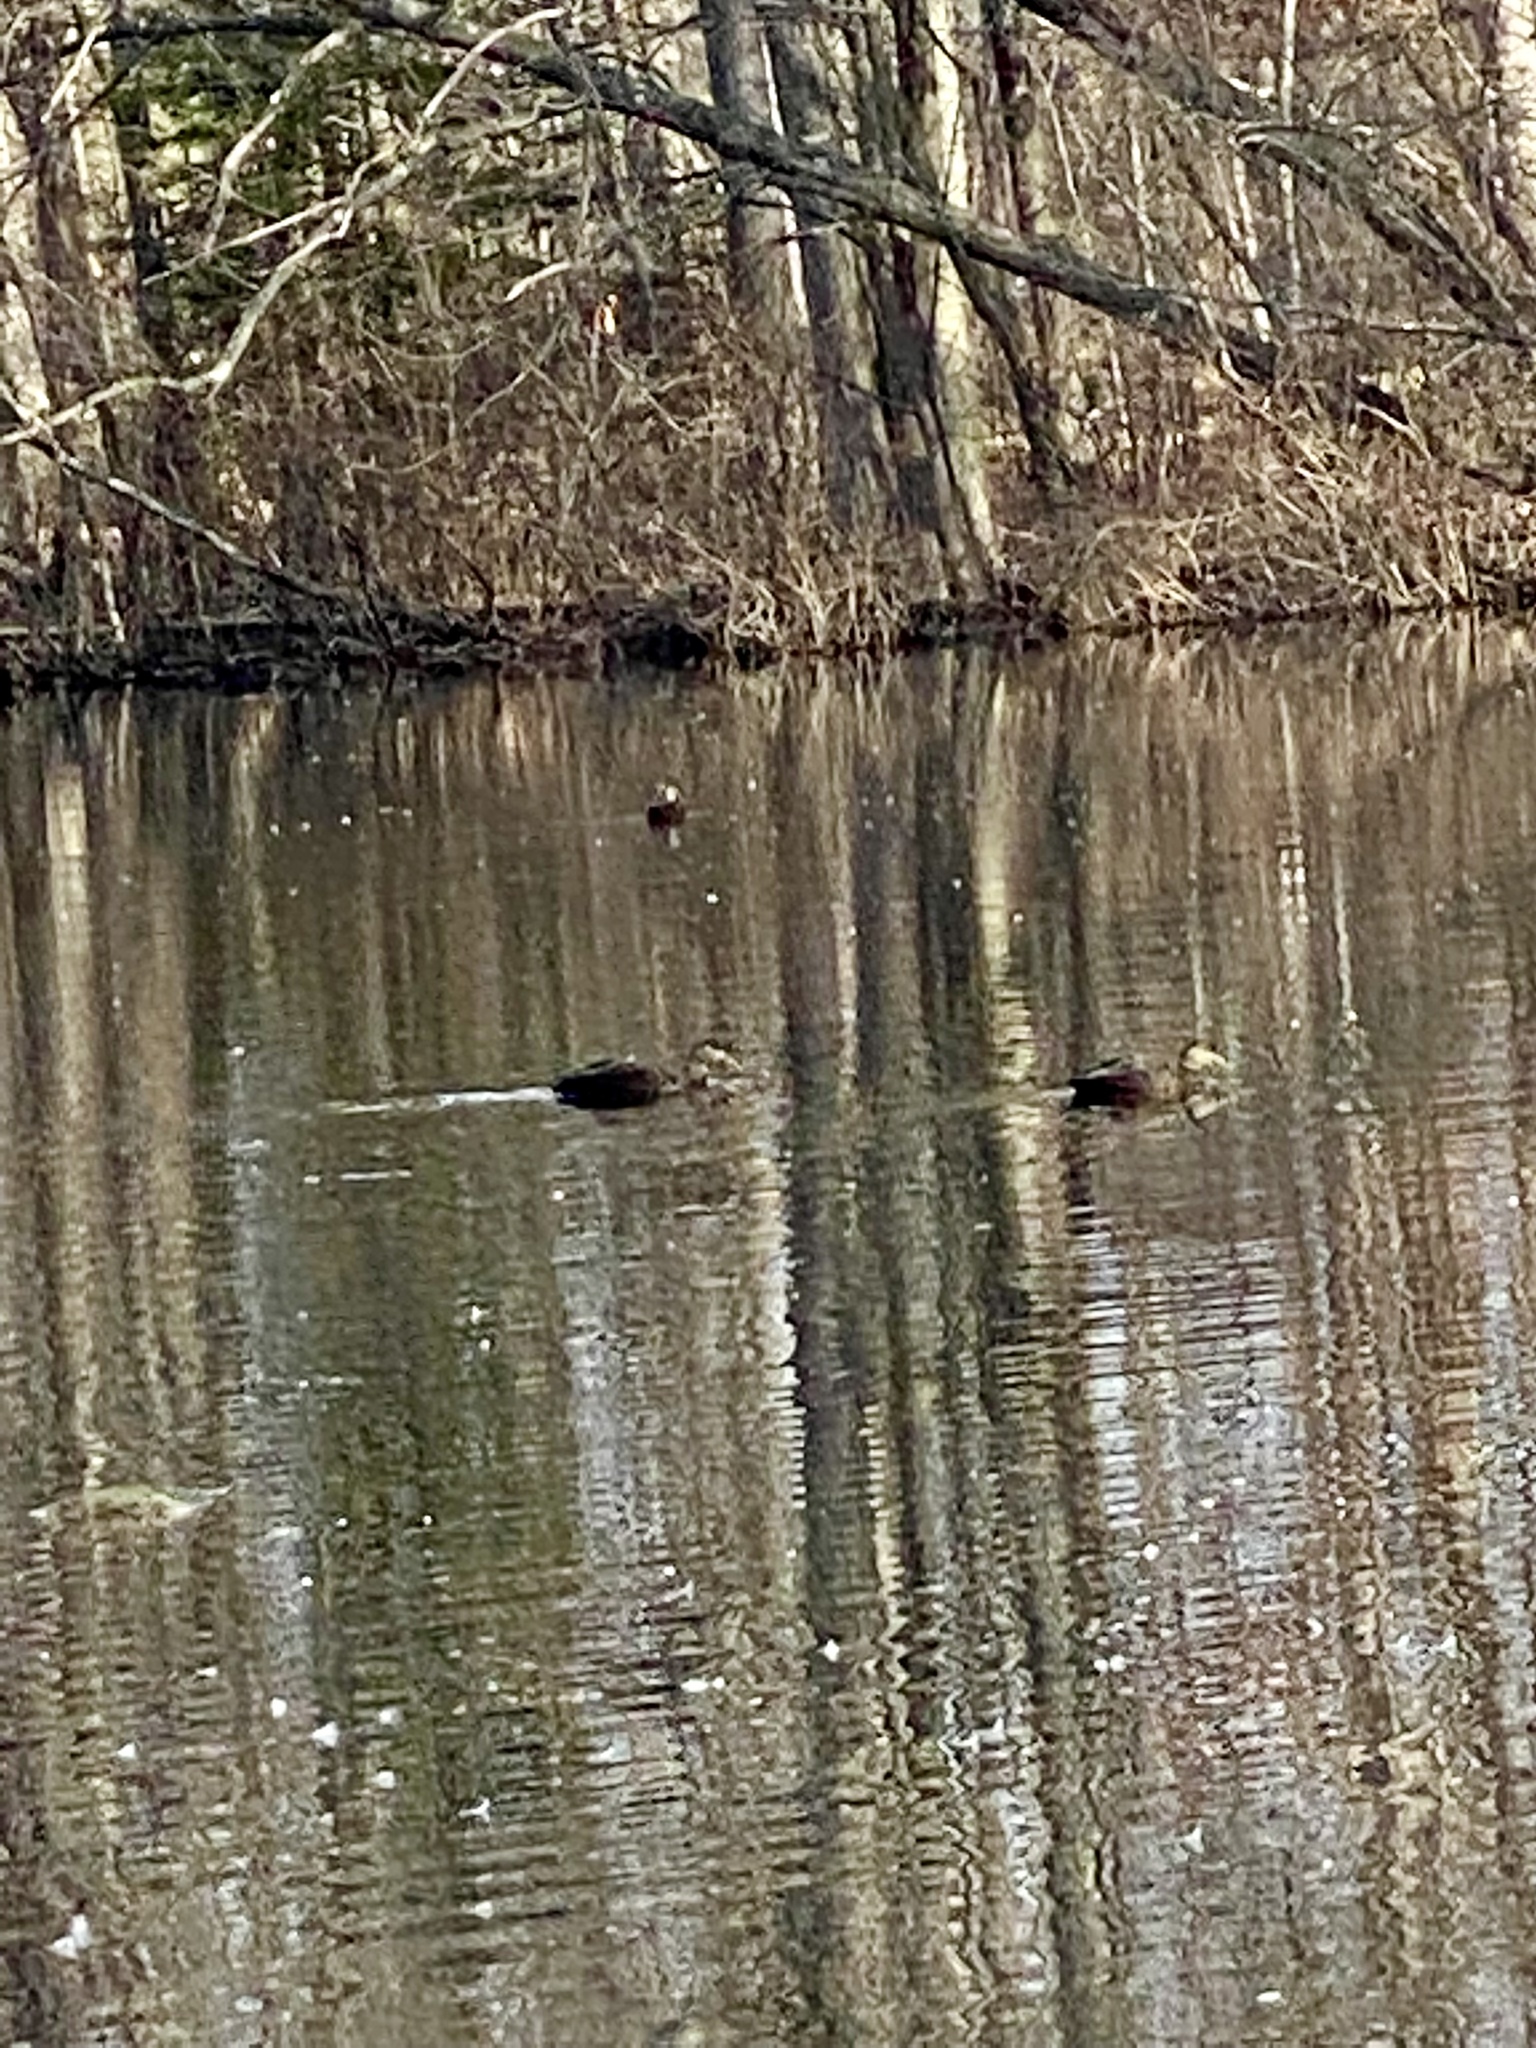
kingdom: Animalia
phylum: Chordata
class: Aves
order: Anseriformes
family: Anatidae
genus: Anas
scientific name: Anas rubripes
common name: American black duck
